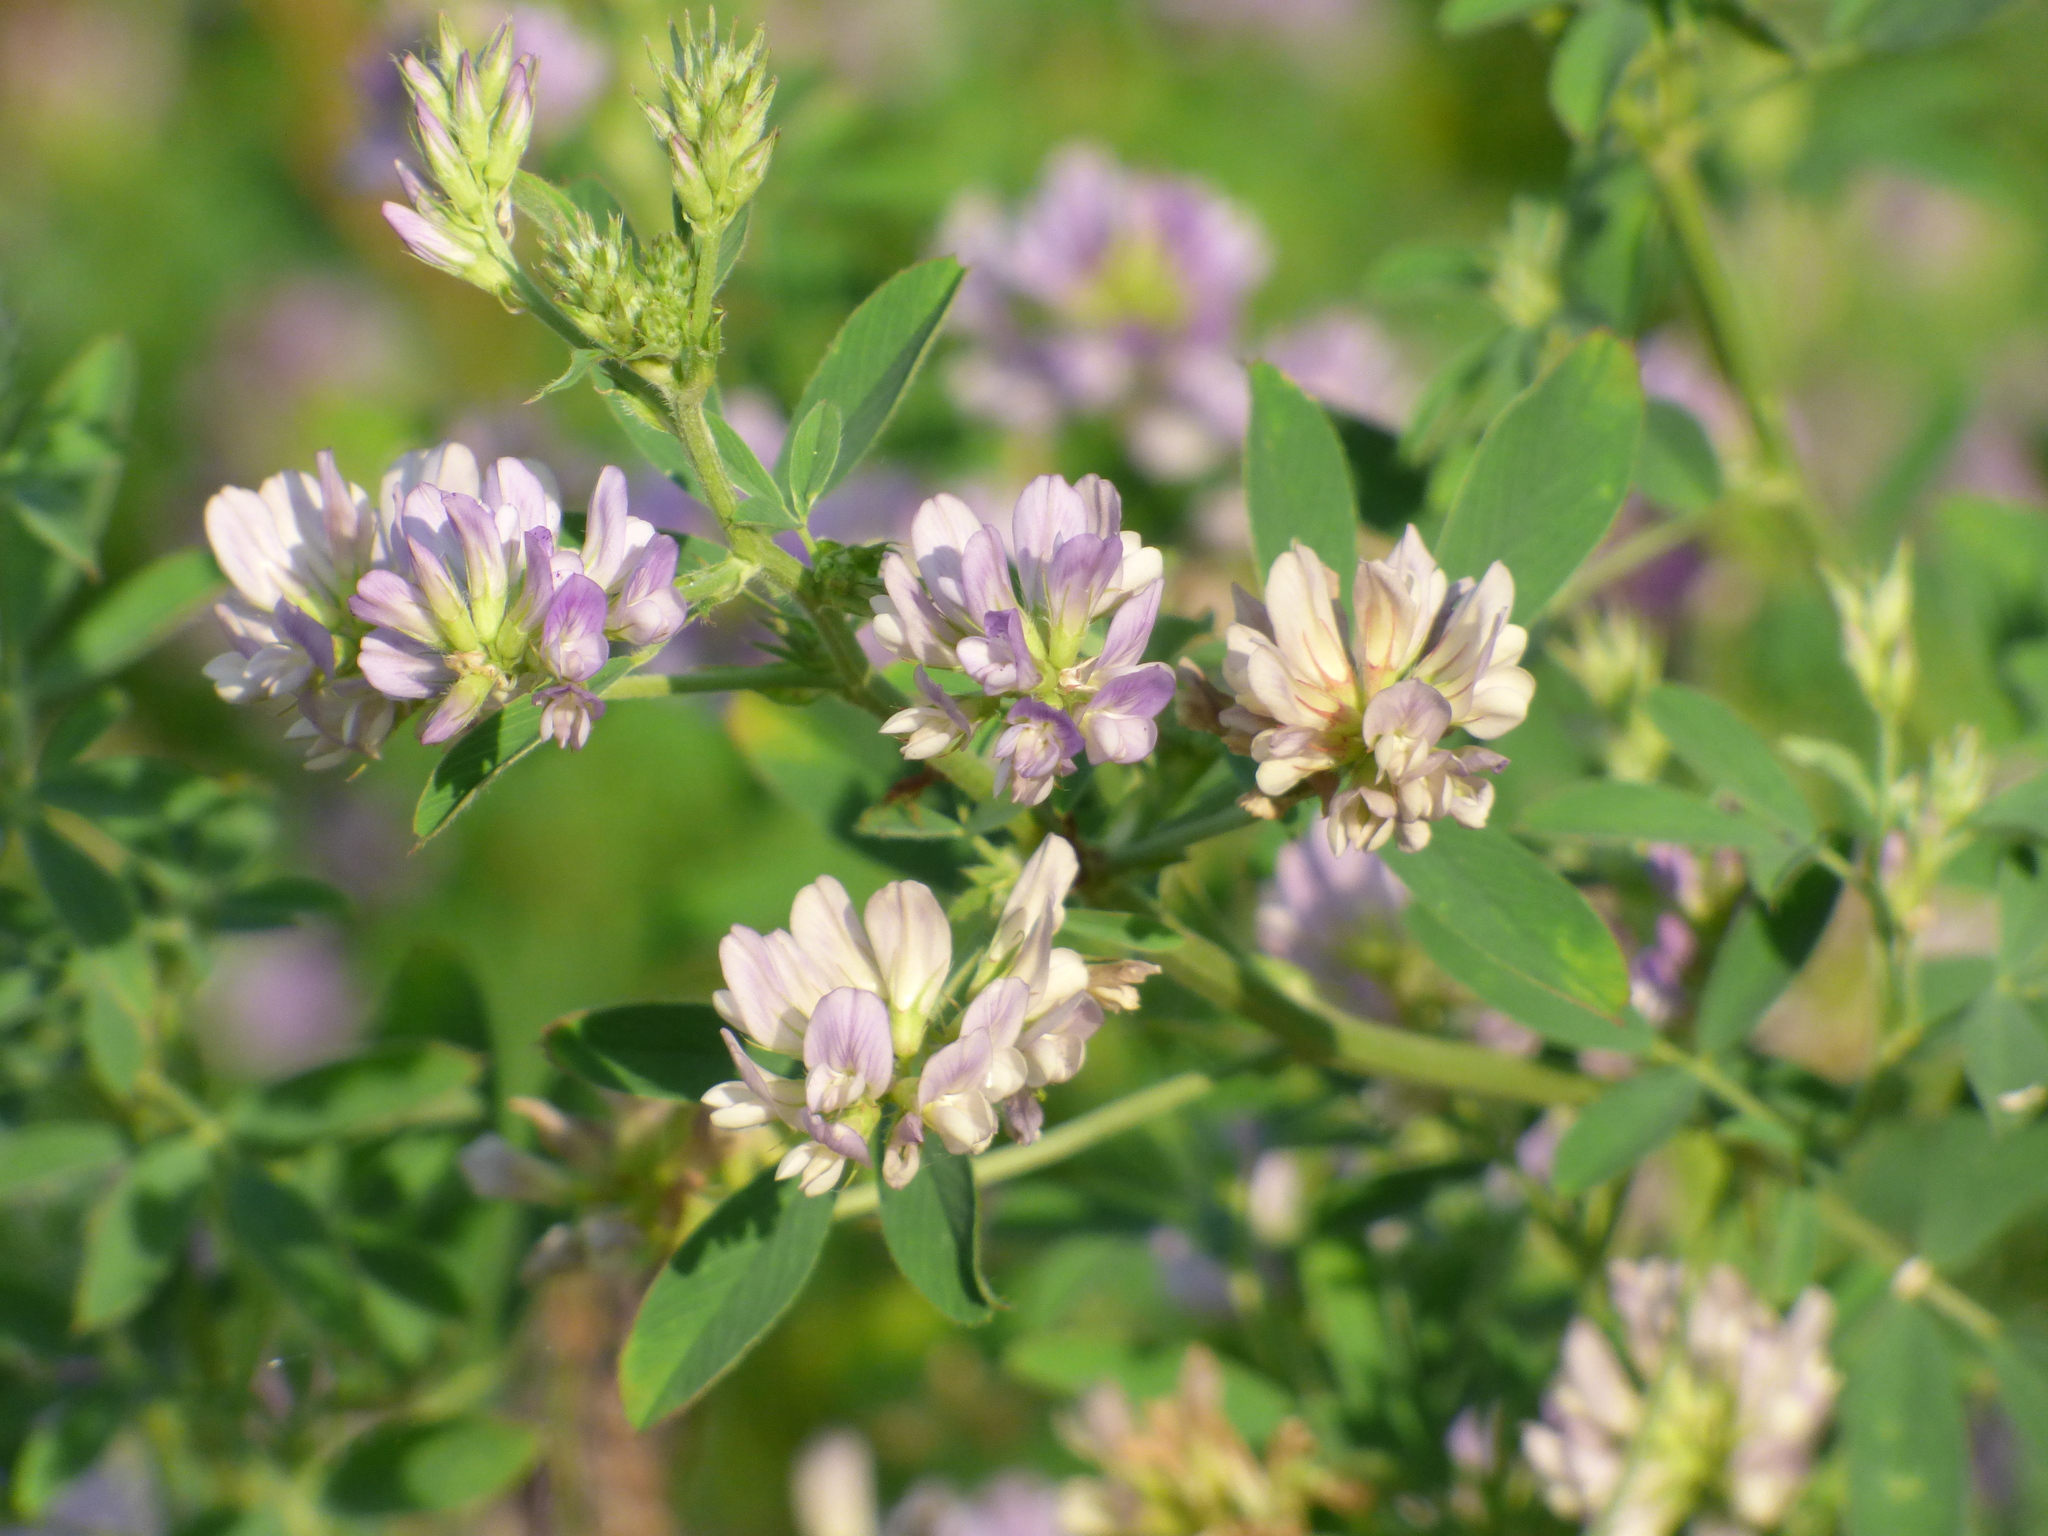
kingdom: Plantae
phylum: Tracheophyta
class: Magnoliopsida
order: Fabales
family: Fabaceae
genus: Medicago
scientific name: Medicago sativa
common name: Alfalfa
